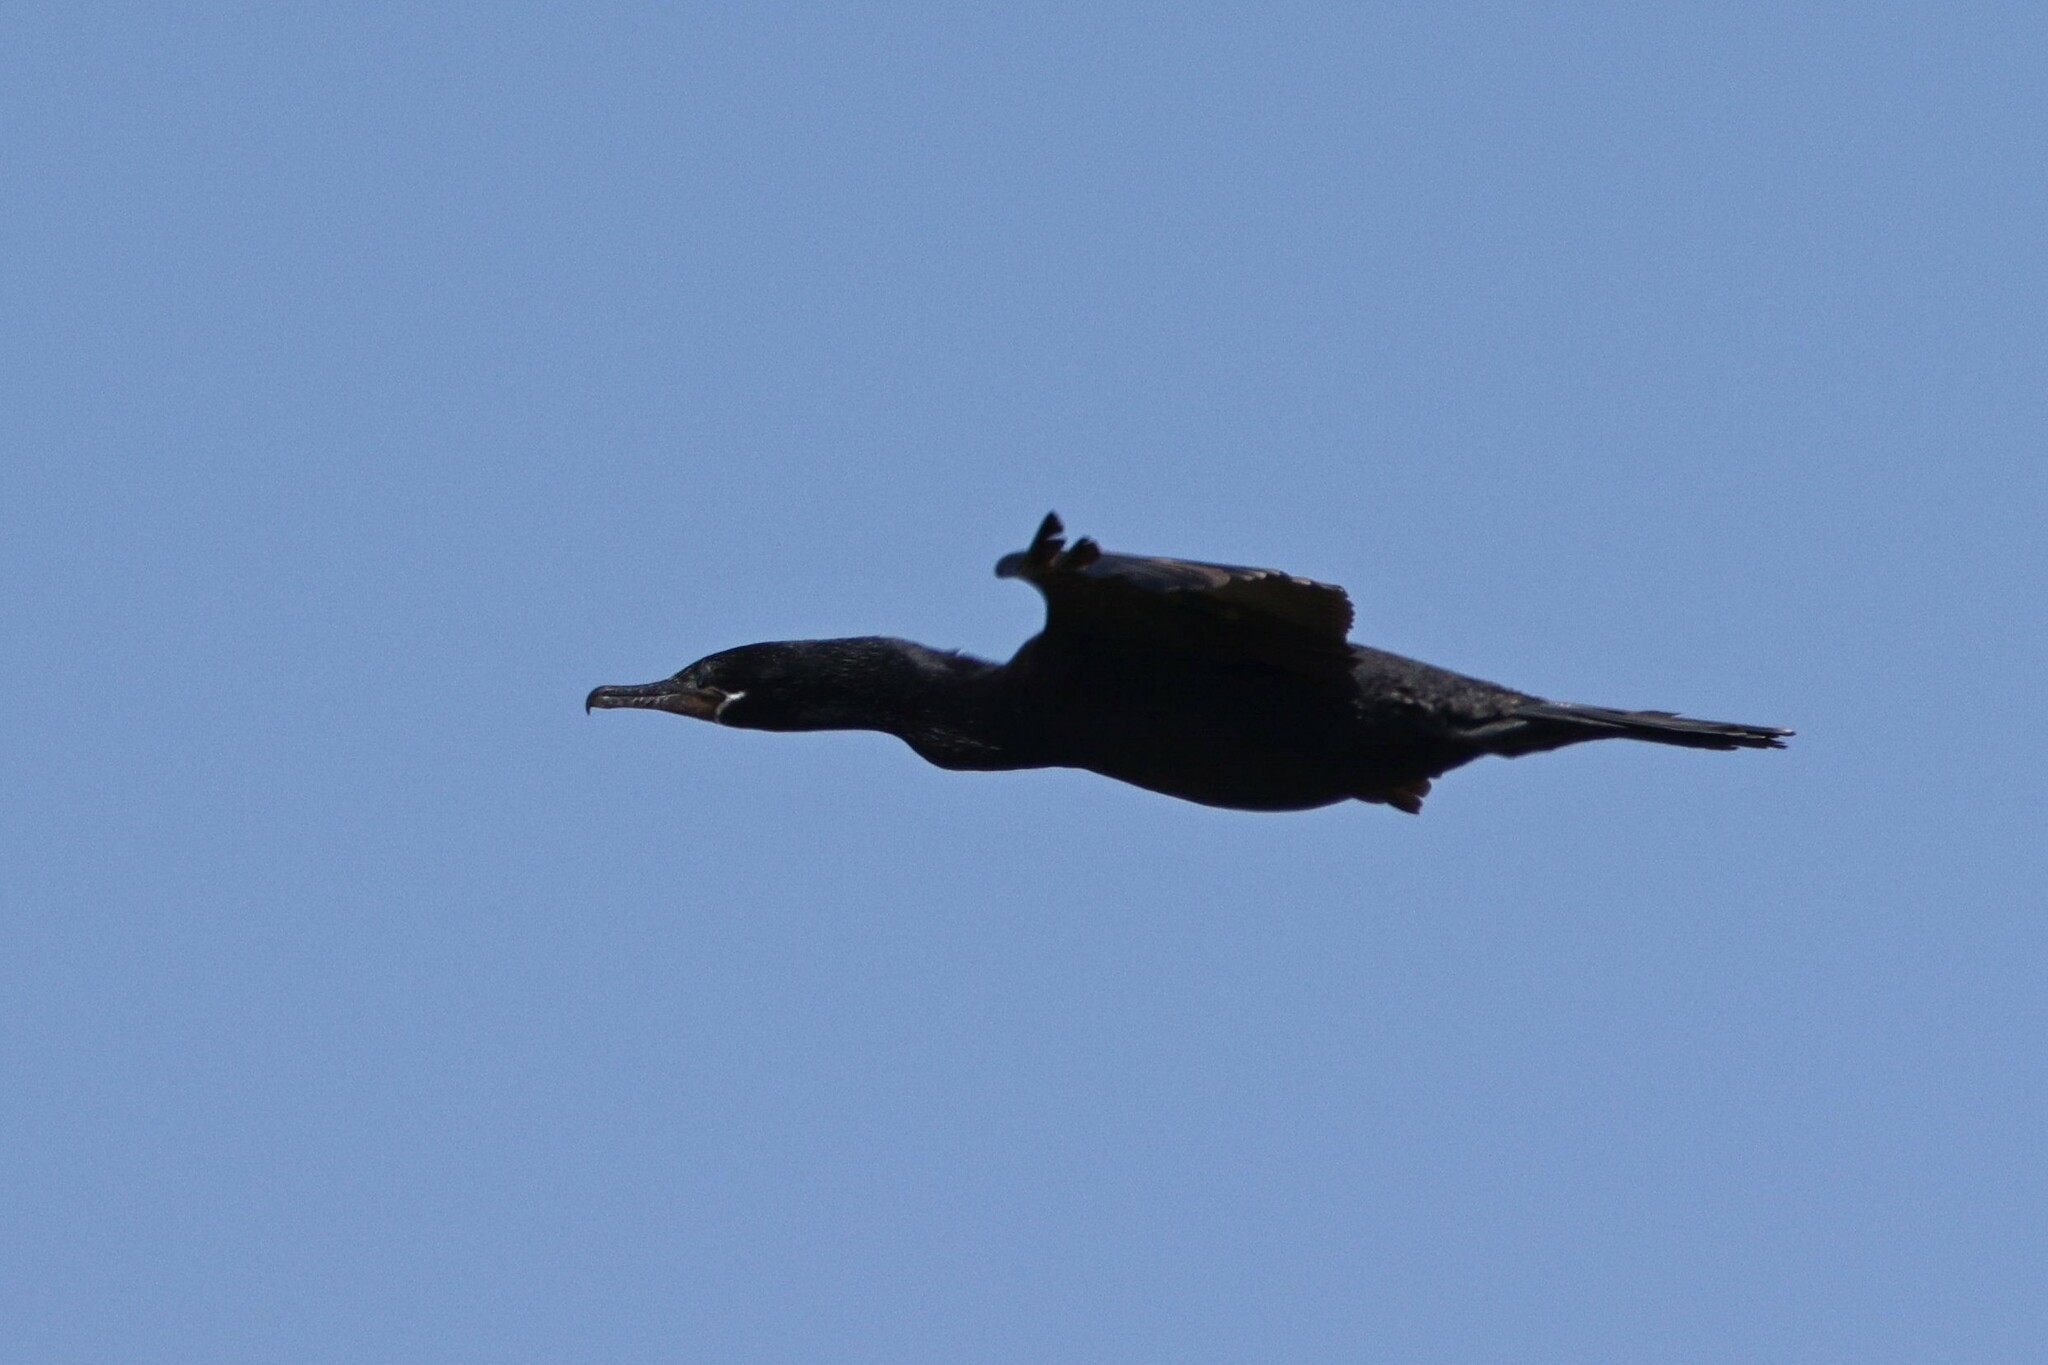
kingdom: Animalia
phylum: Chordata
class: Aves
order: Suliformes
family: Phalacrocoracidae
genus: Phalacrocorax
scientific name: Phalacrocorax brasilianus
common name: Neotropic cormorant
